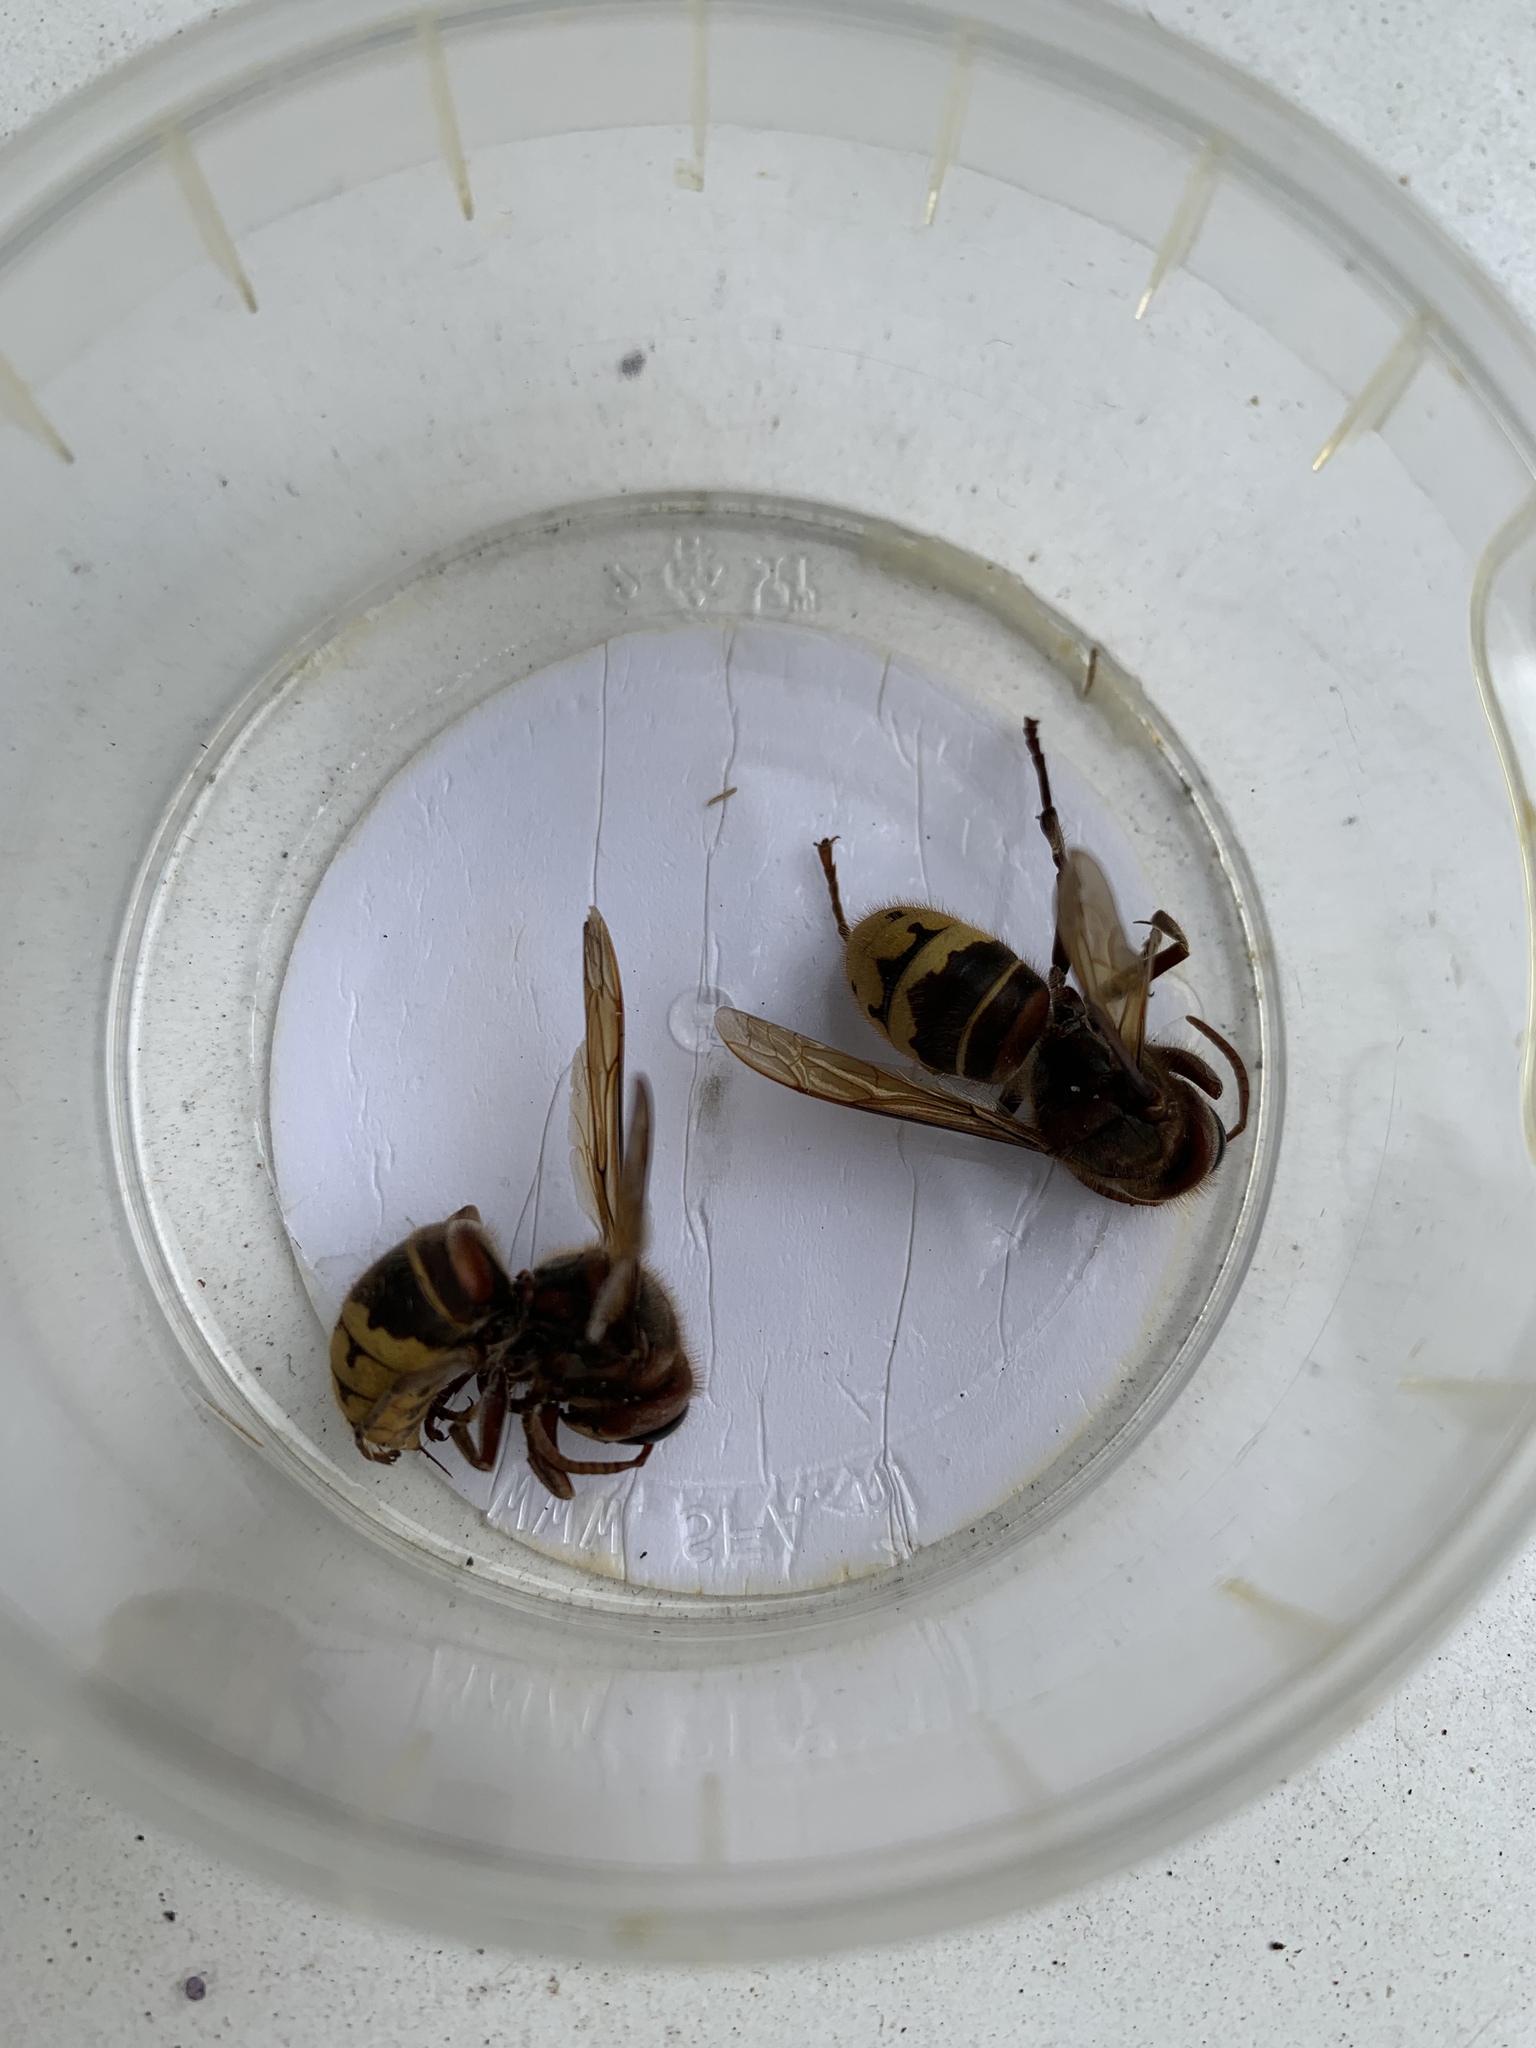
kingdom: Animalia
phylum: Arthropoda
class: Insecta
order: Hymenoptera
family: Vespidae
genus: Vespa
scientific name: Vespa crabro
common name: Hornet
